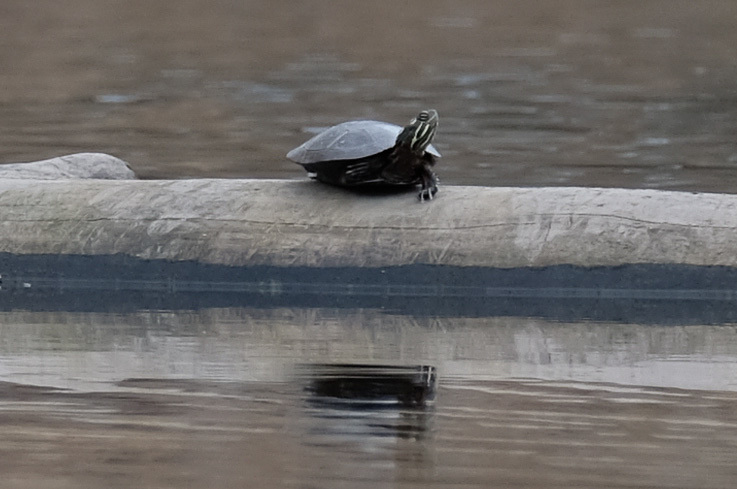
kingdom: Animalia
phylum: Chordata
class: Testudines
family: Emydidae
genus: Chrysemys
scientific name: Chrysemys picta
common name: Painted turtle
